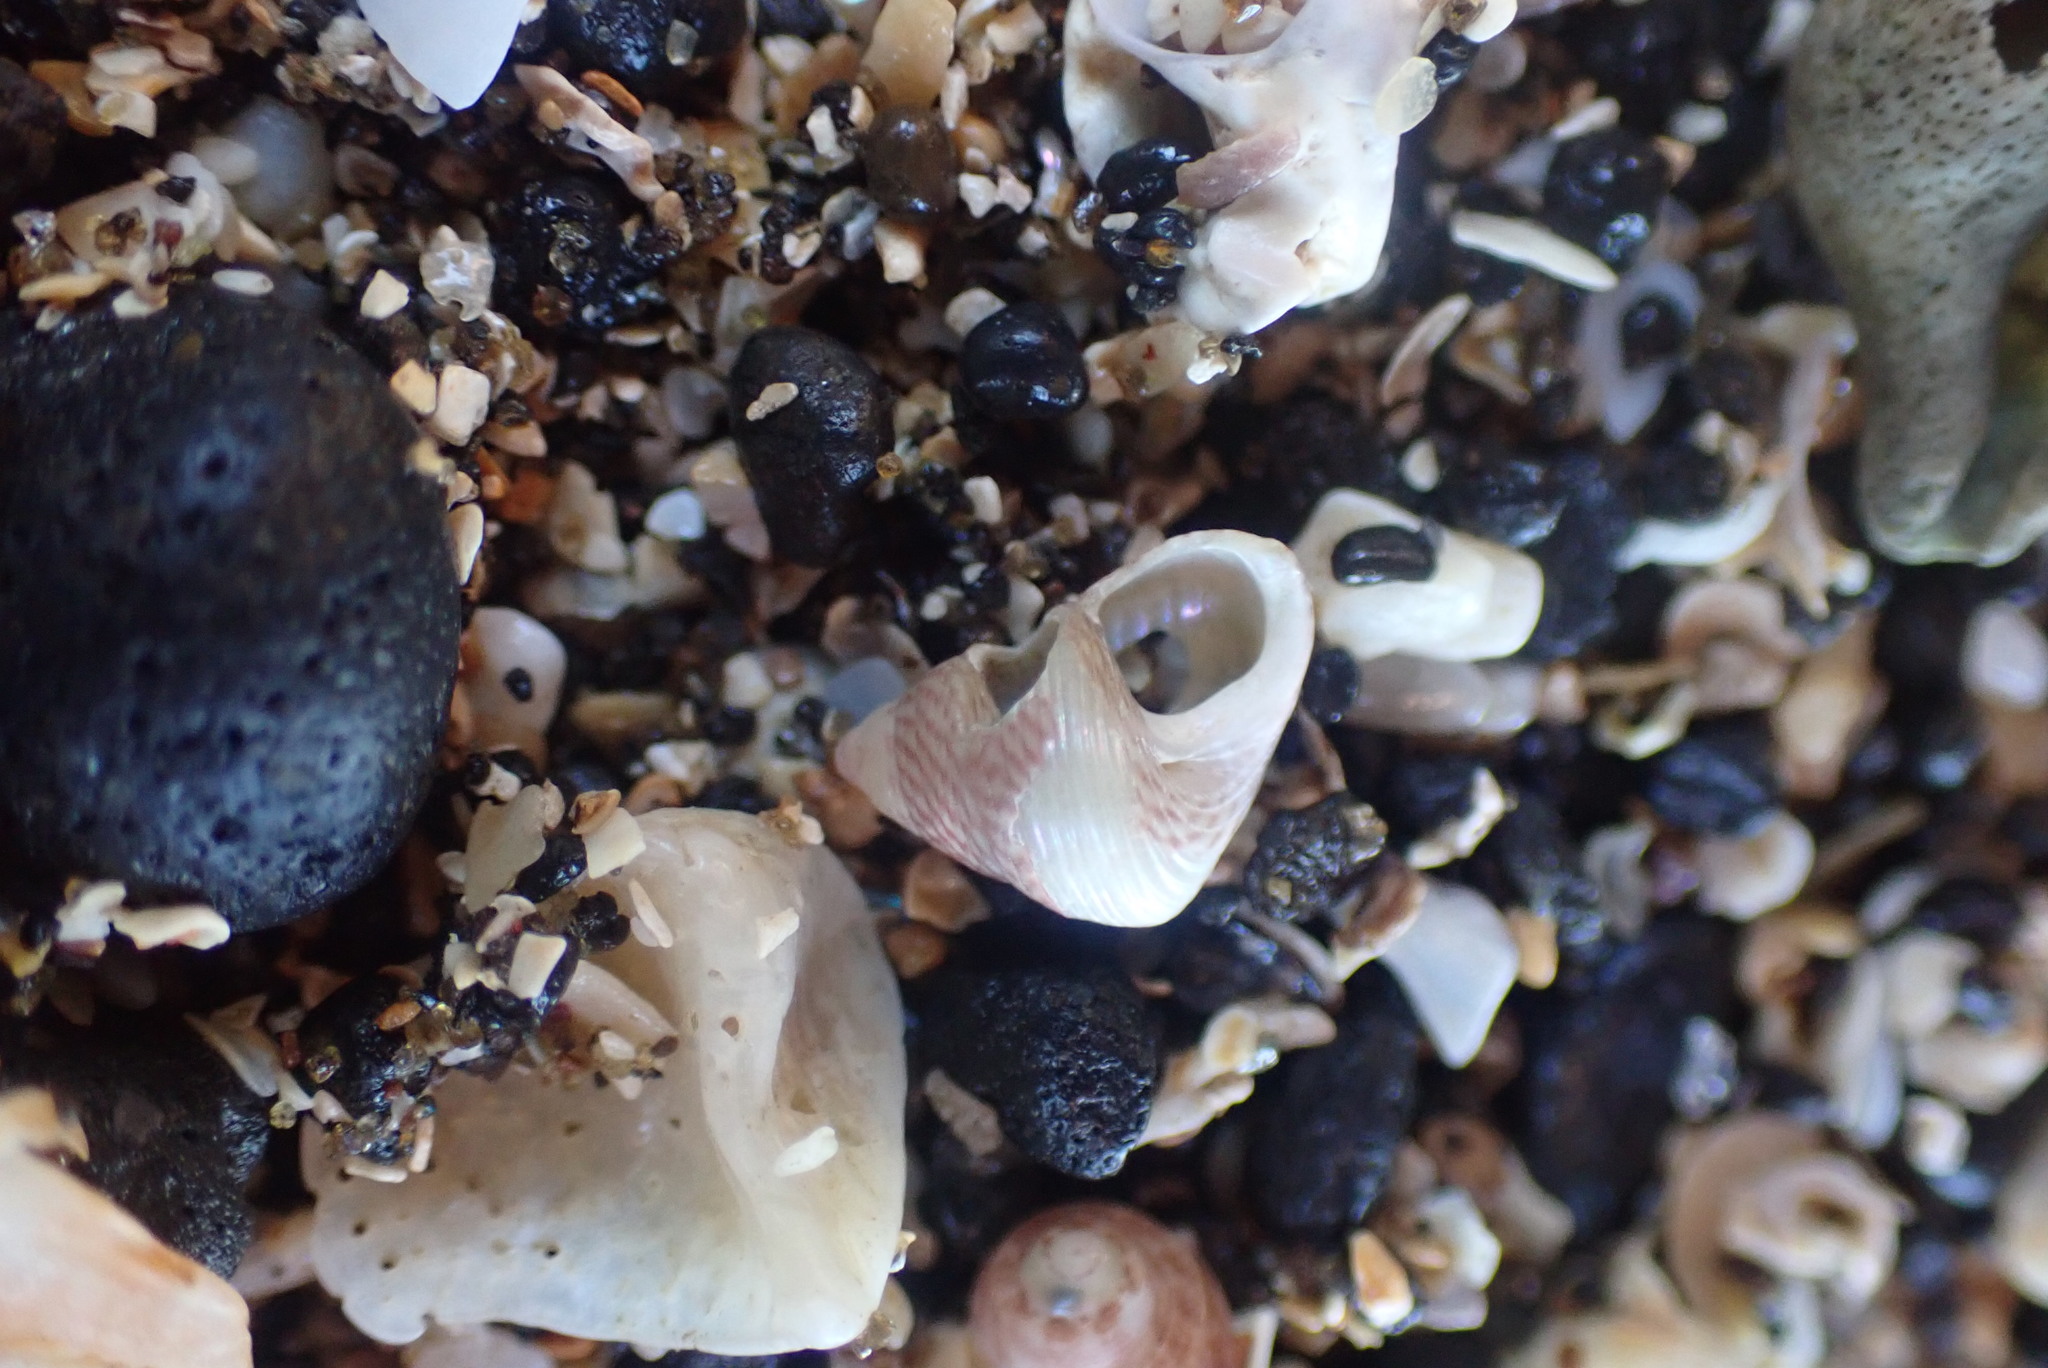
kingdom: Animalia
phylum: Mollusca
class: Gastropoda
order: Trochida
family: Trochidae
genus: Micrelenchus
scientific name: Micrelenchus sanguineus
